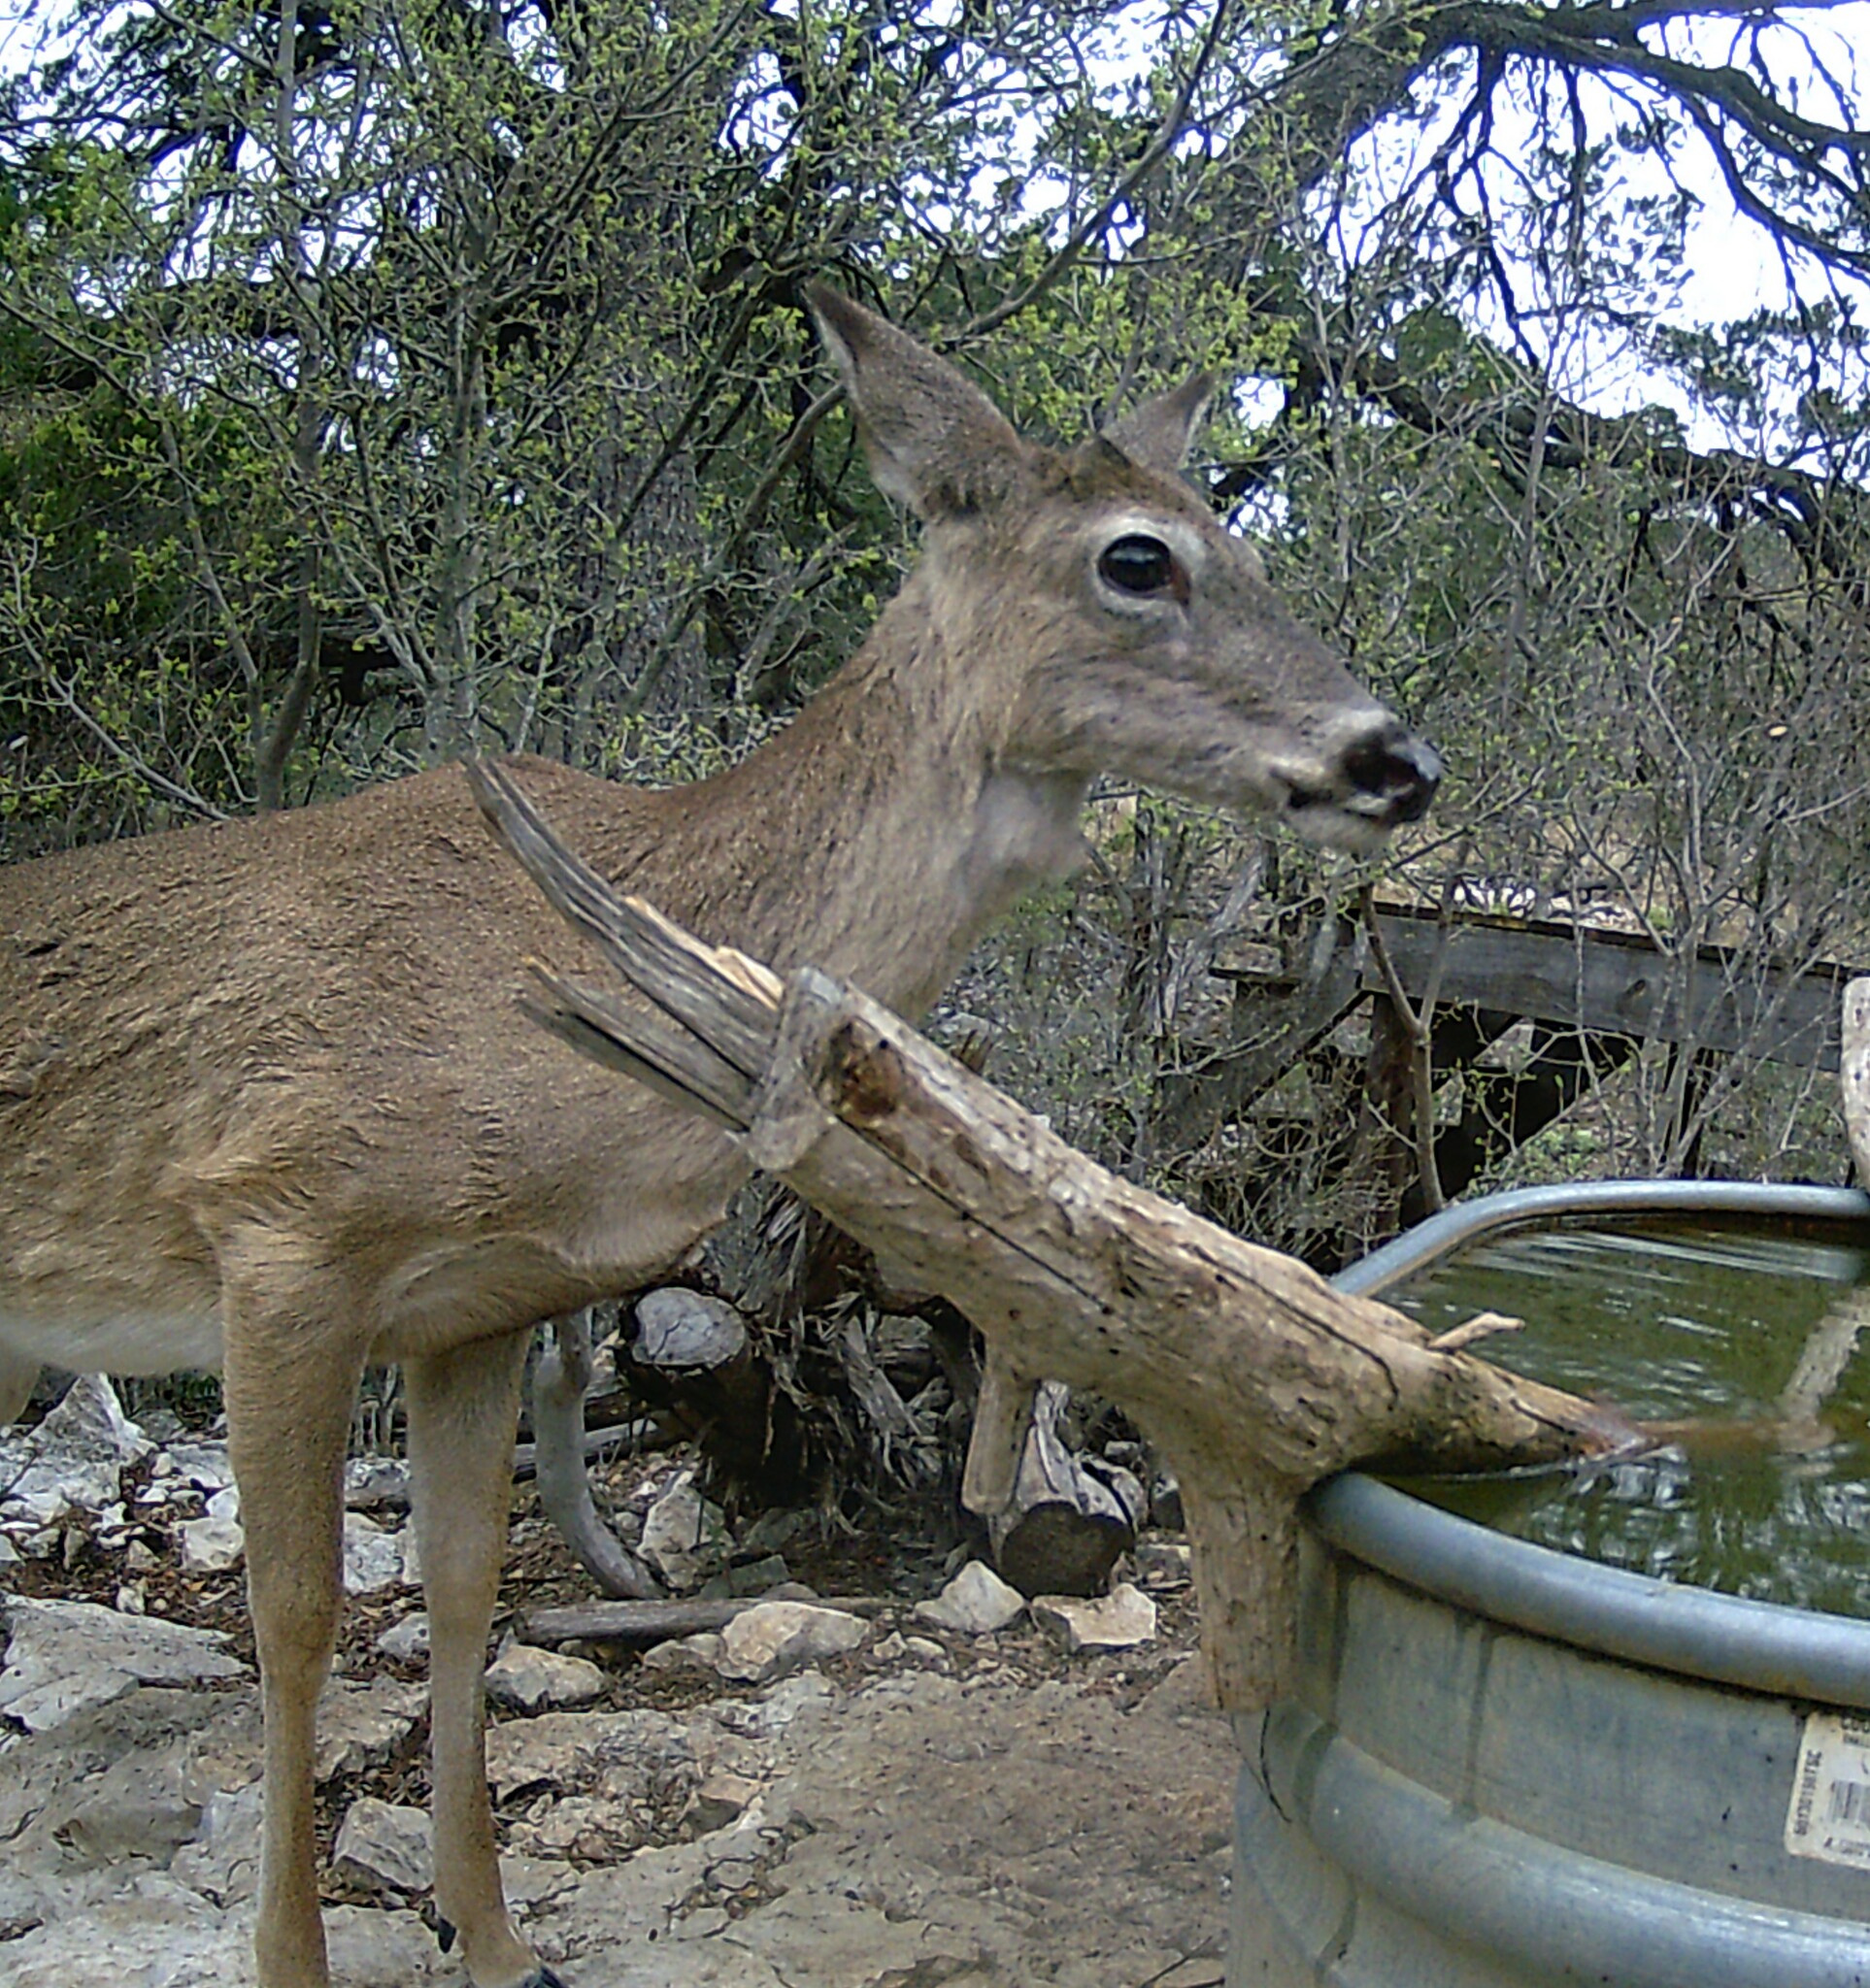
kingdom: Animalia
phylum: Chordata
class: Mammalia
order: Artiodactyla
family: Cervidae
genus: Odocoileus
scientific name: Odocoileus virginianus
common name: White-tailed deer
